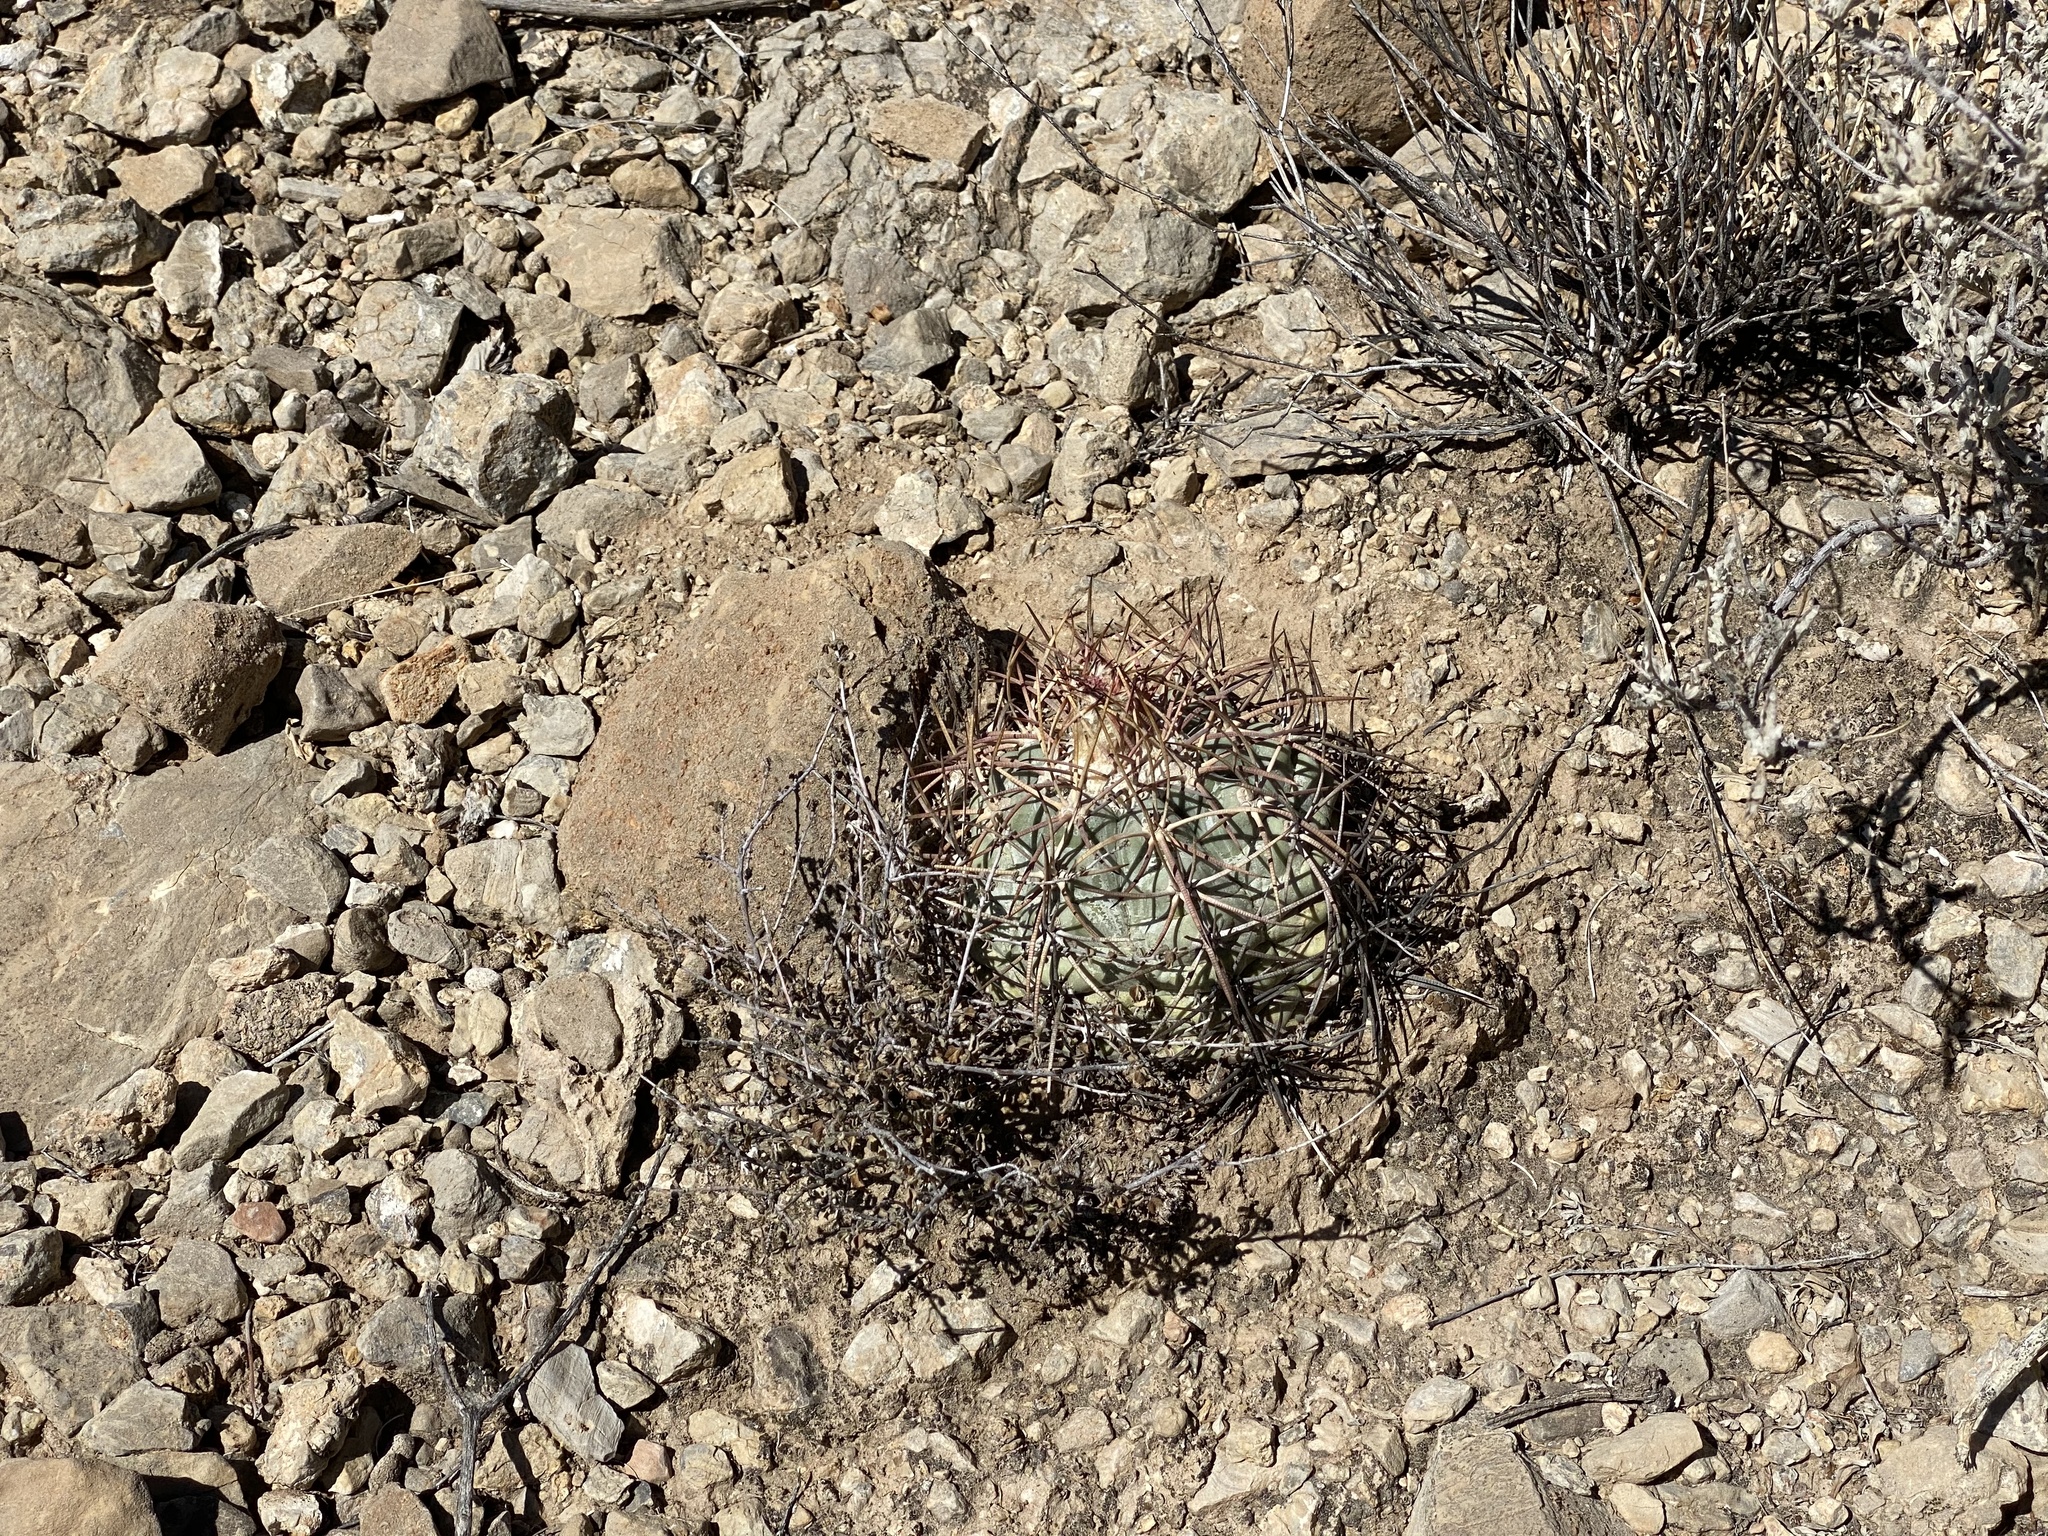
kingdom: Plantae
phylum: Tracheophyta
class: Magnoliopsida
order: Caryophyllales
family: Cactaceae
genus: Echinocactus
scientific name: Echinocactus horizonthalonius
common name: Devilshead
